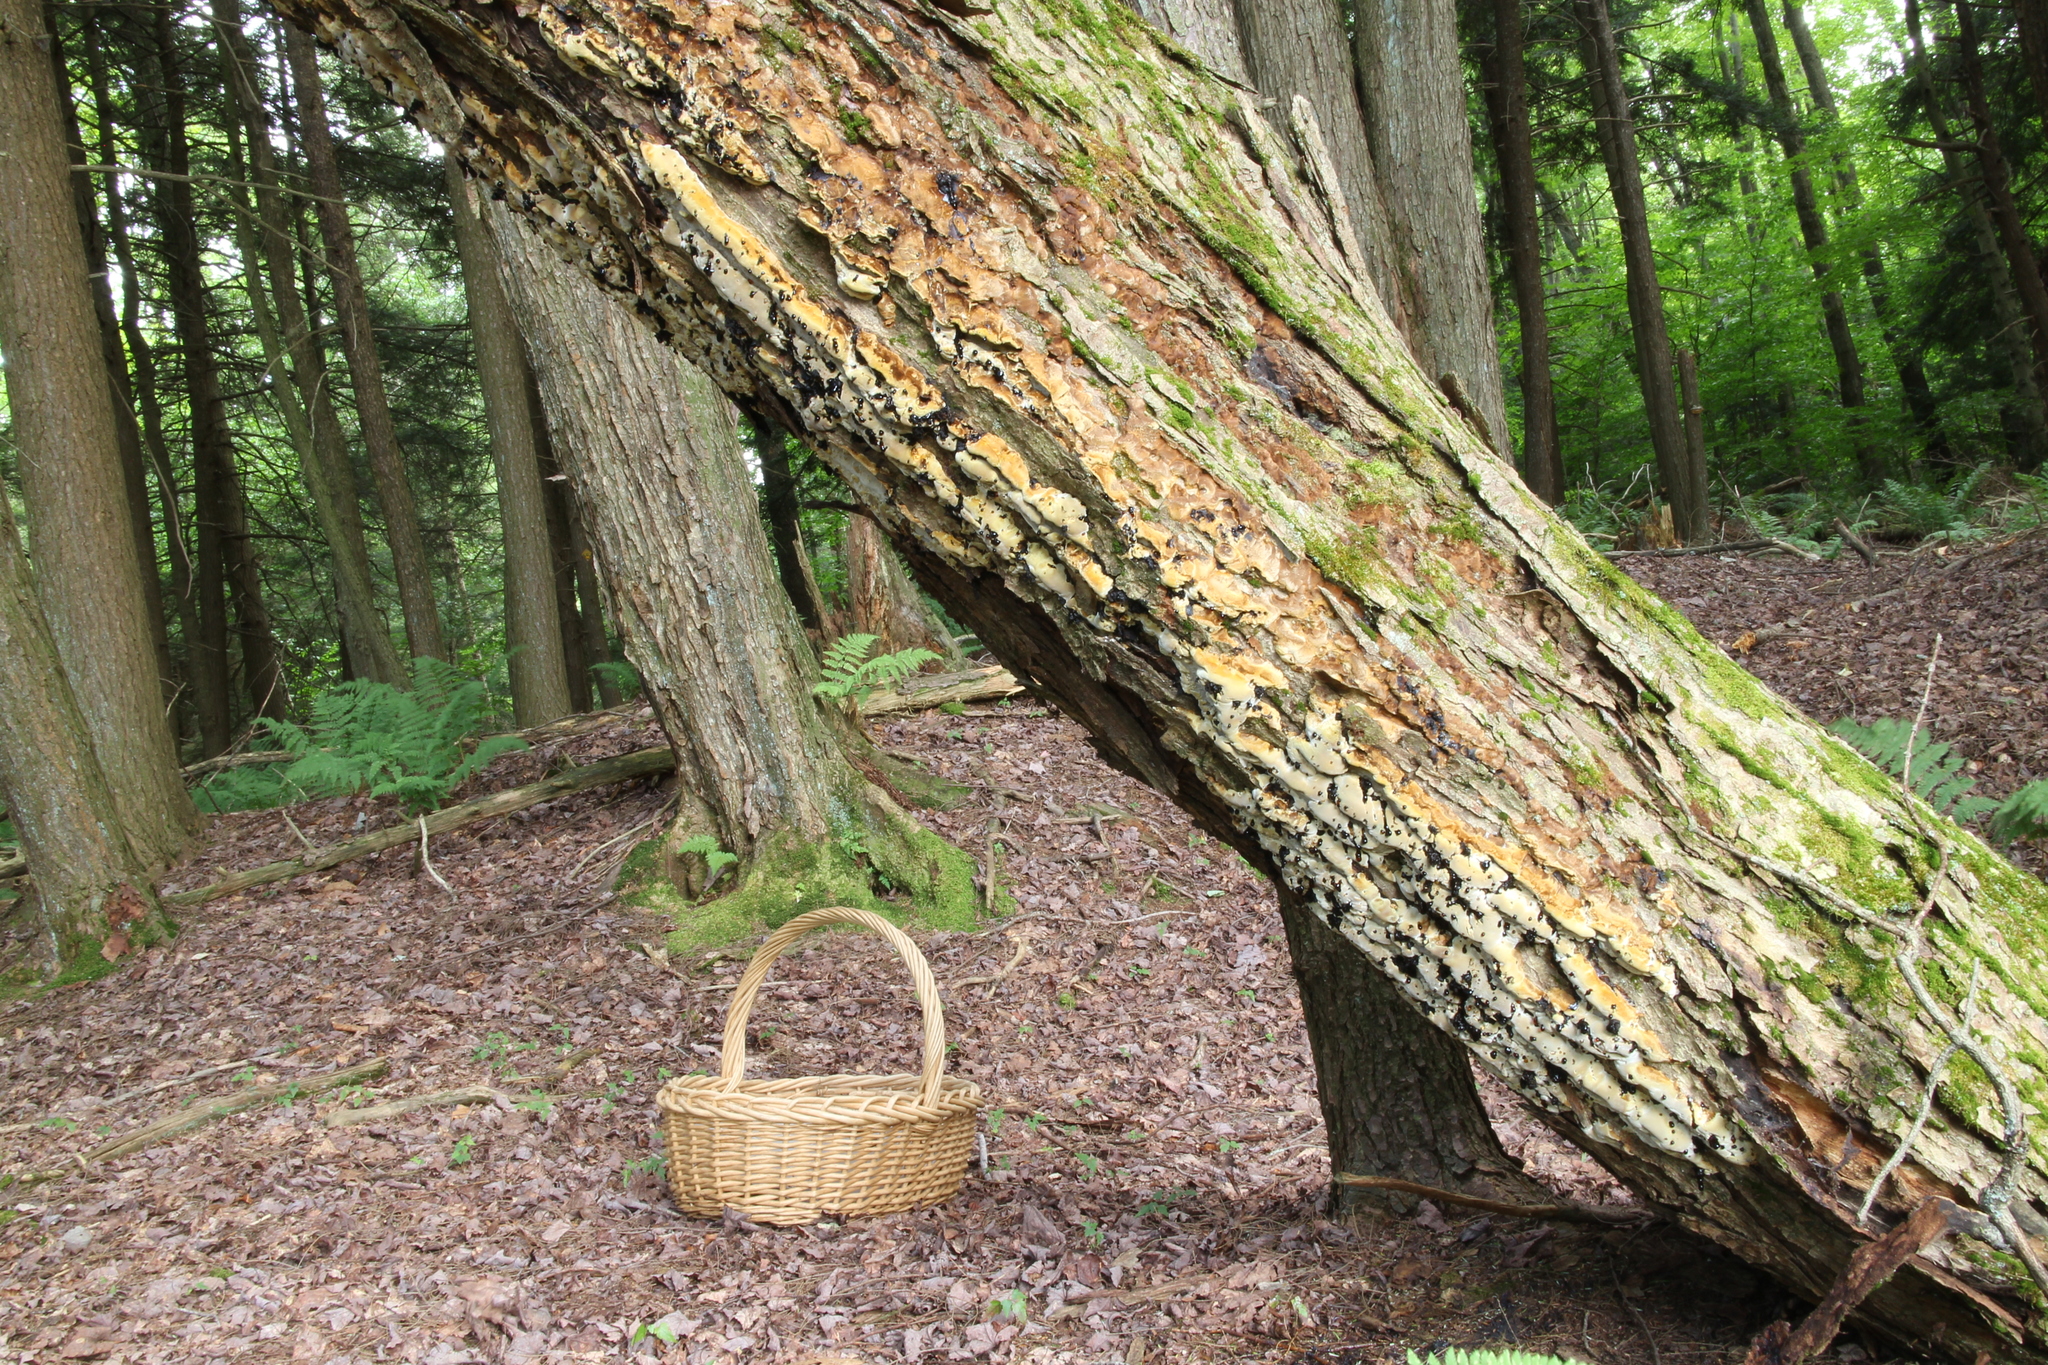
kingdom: Fungi
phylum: Basidiomycota
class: Agaricomycetes
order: Hymenochaetales
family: Hymenochaetaceae
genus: Rigidonotus
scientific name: Rigidonotus glomeratus
